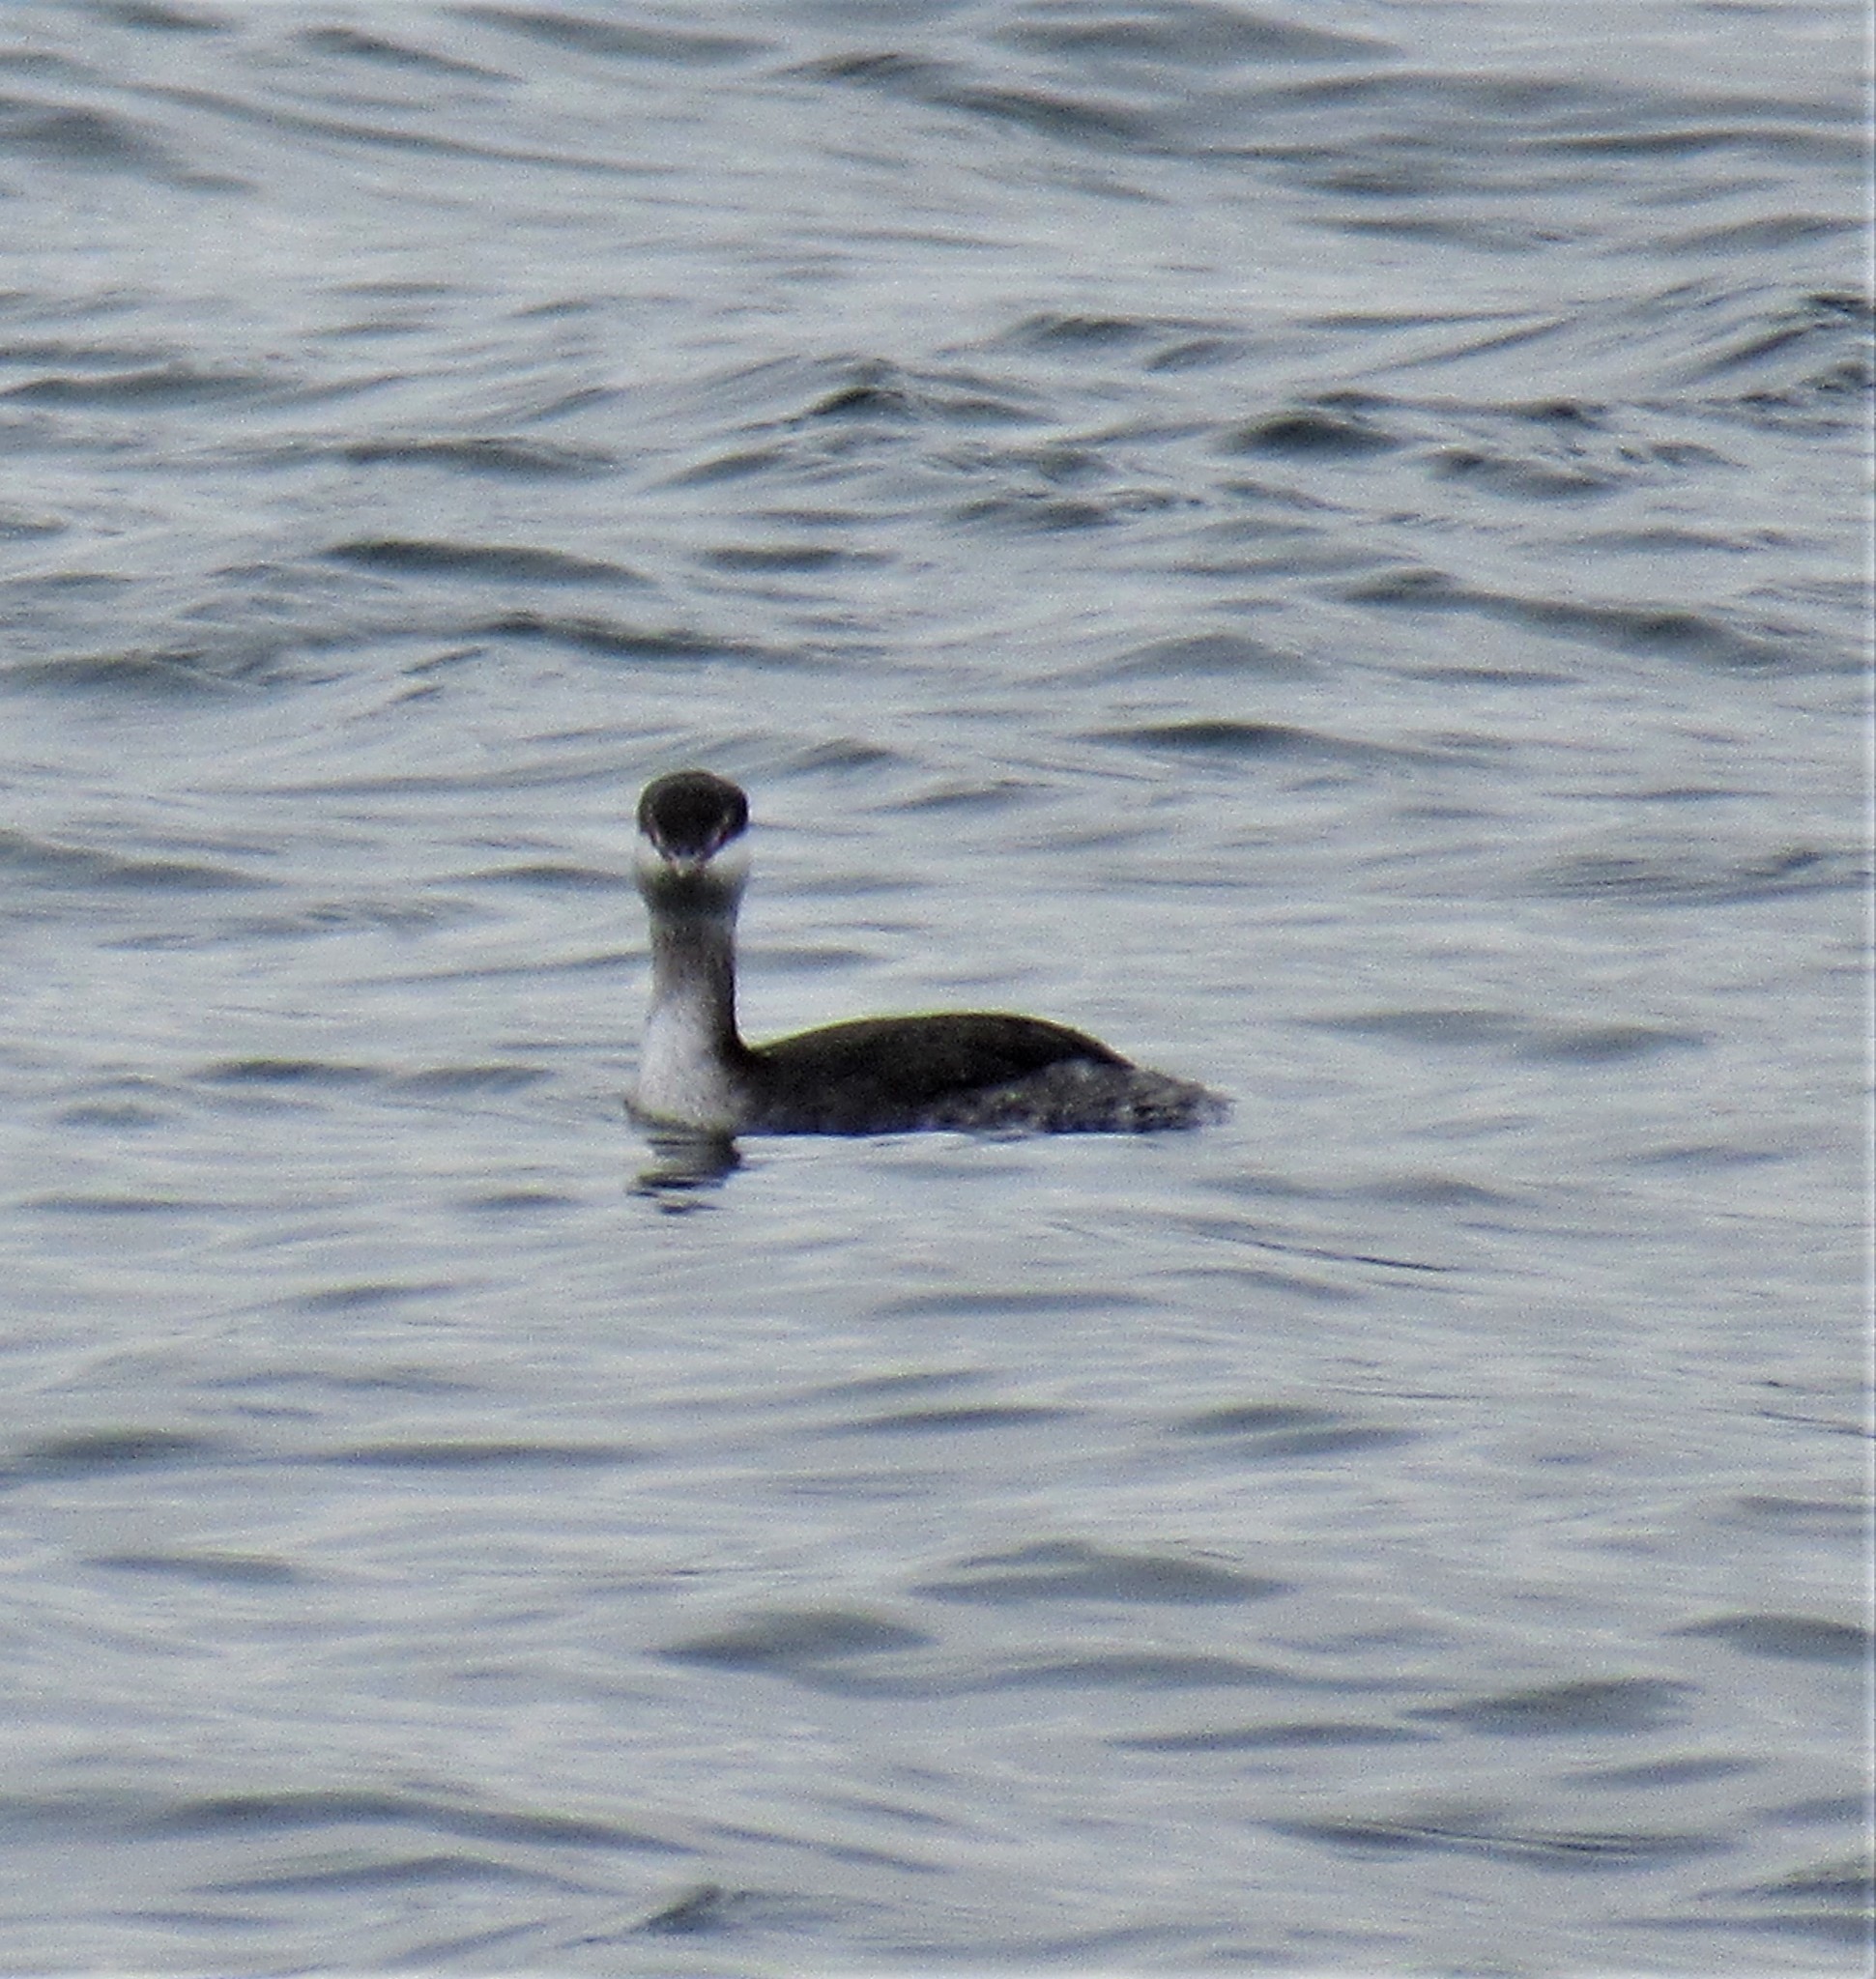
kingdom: Animalia
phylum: Chordata
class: Aves
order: Podicipediformes
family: Podicipedidae
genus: Podiceps
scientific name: Podiceps auritus
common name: Horned grebe
